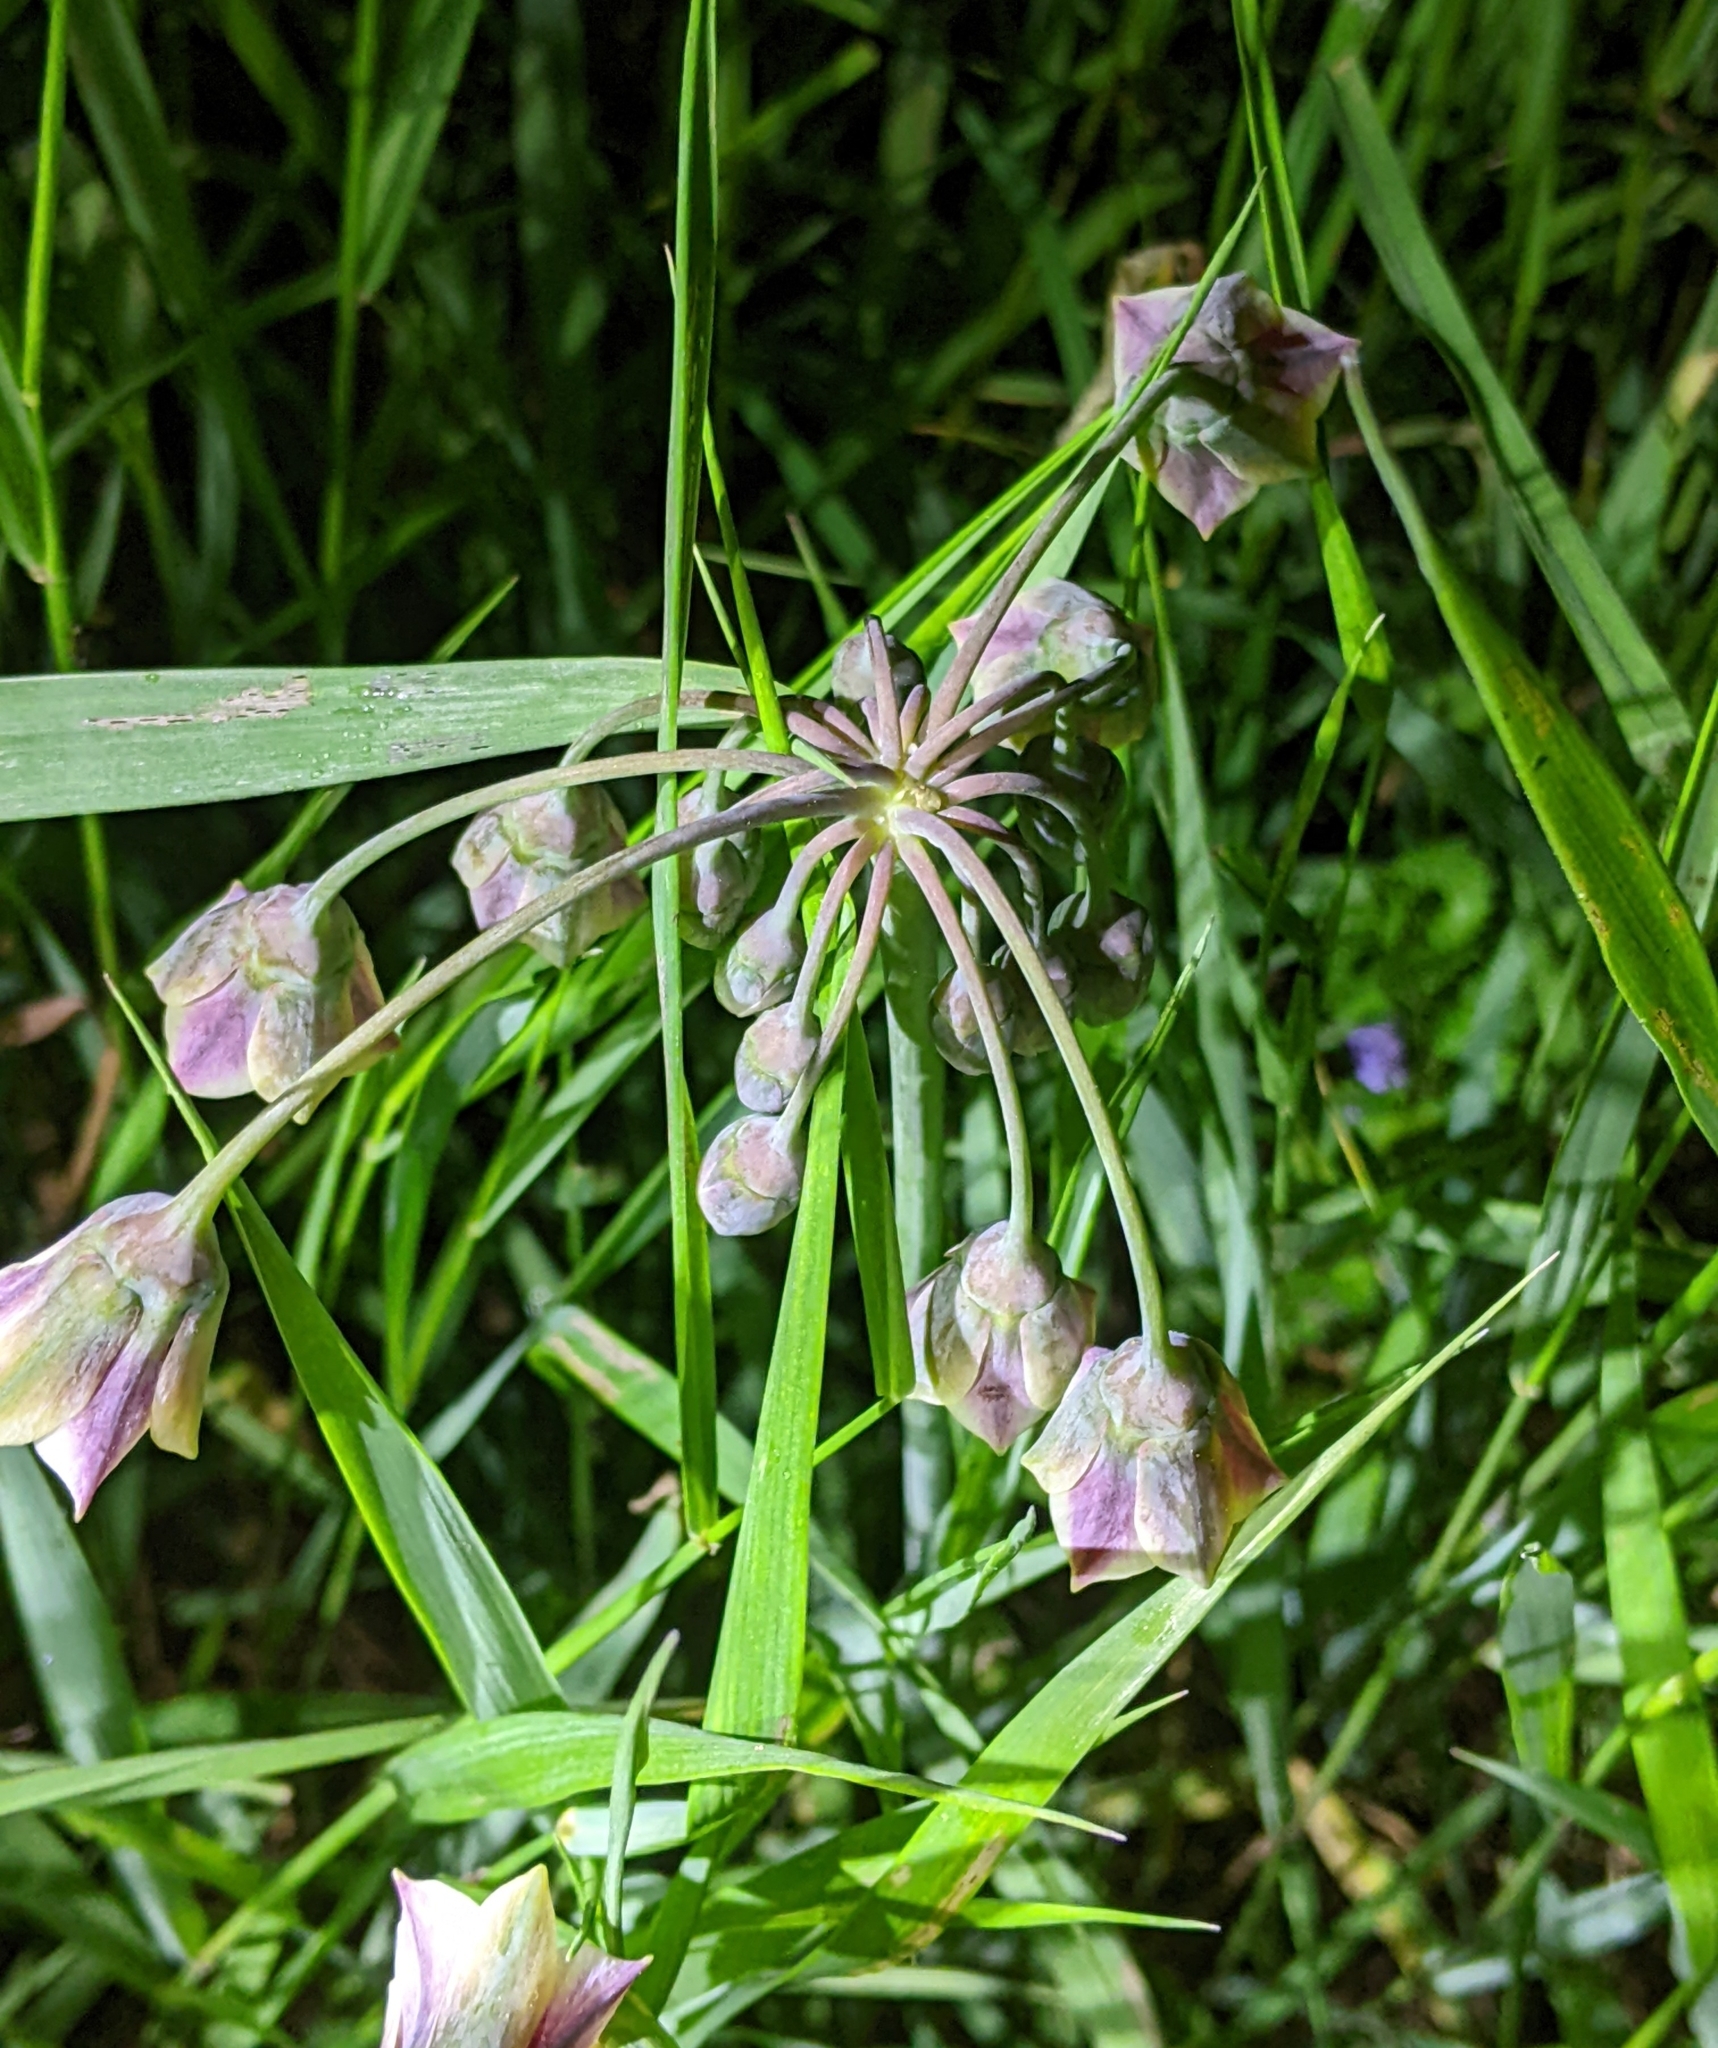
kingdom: Plantae
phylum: Tracheophyta
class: Liliopsida
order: Asparagales
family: Amaryllidaceae
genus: Allium
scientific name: Allium siculum
